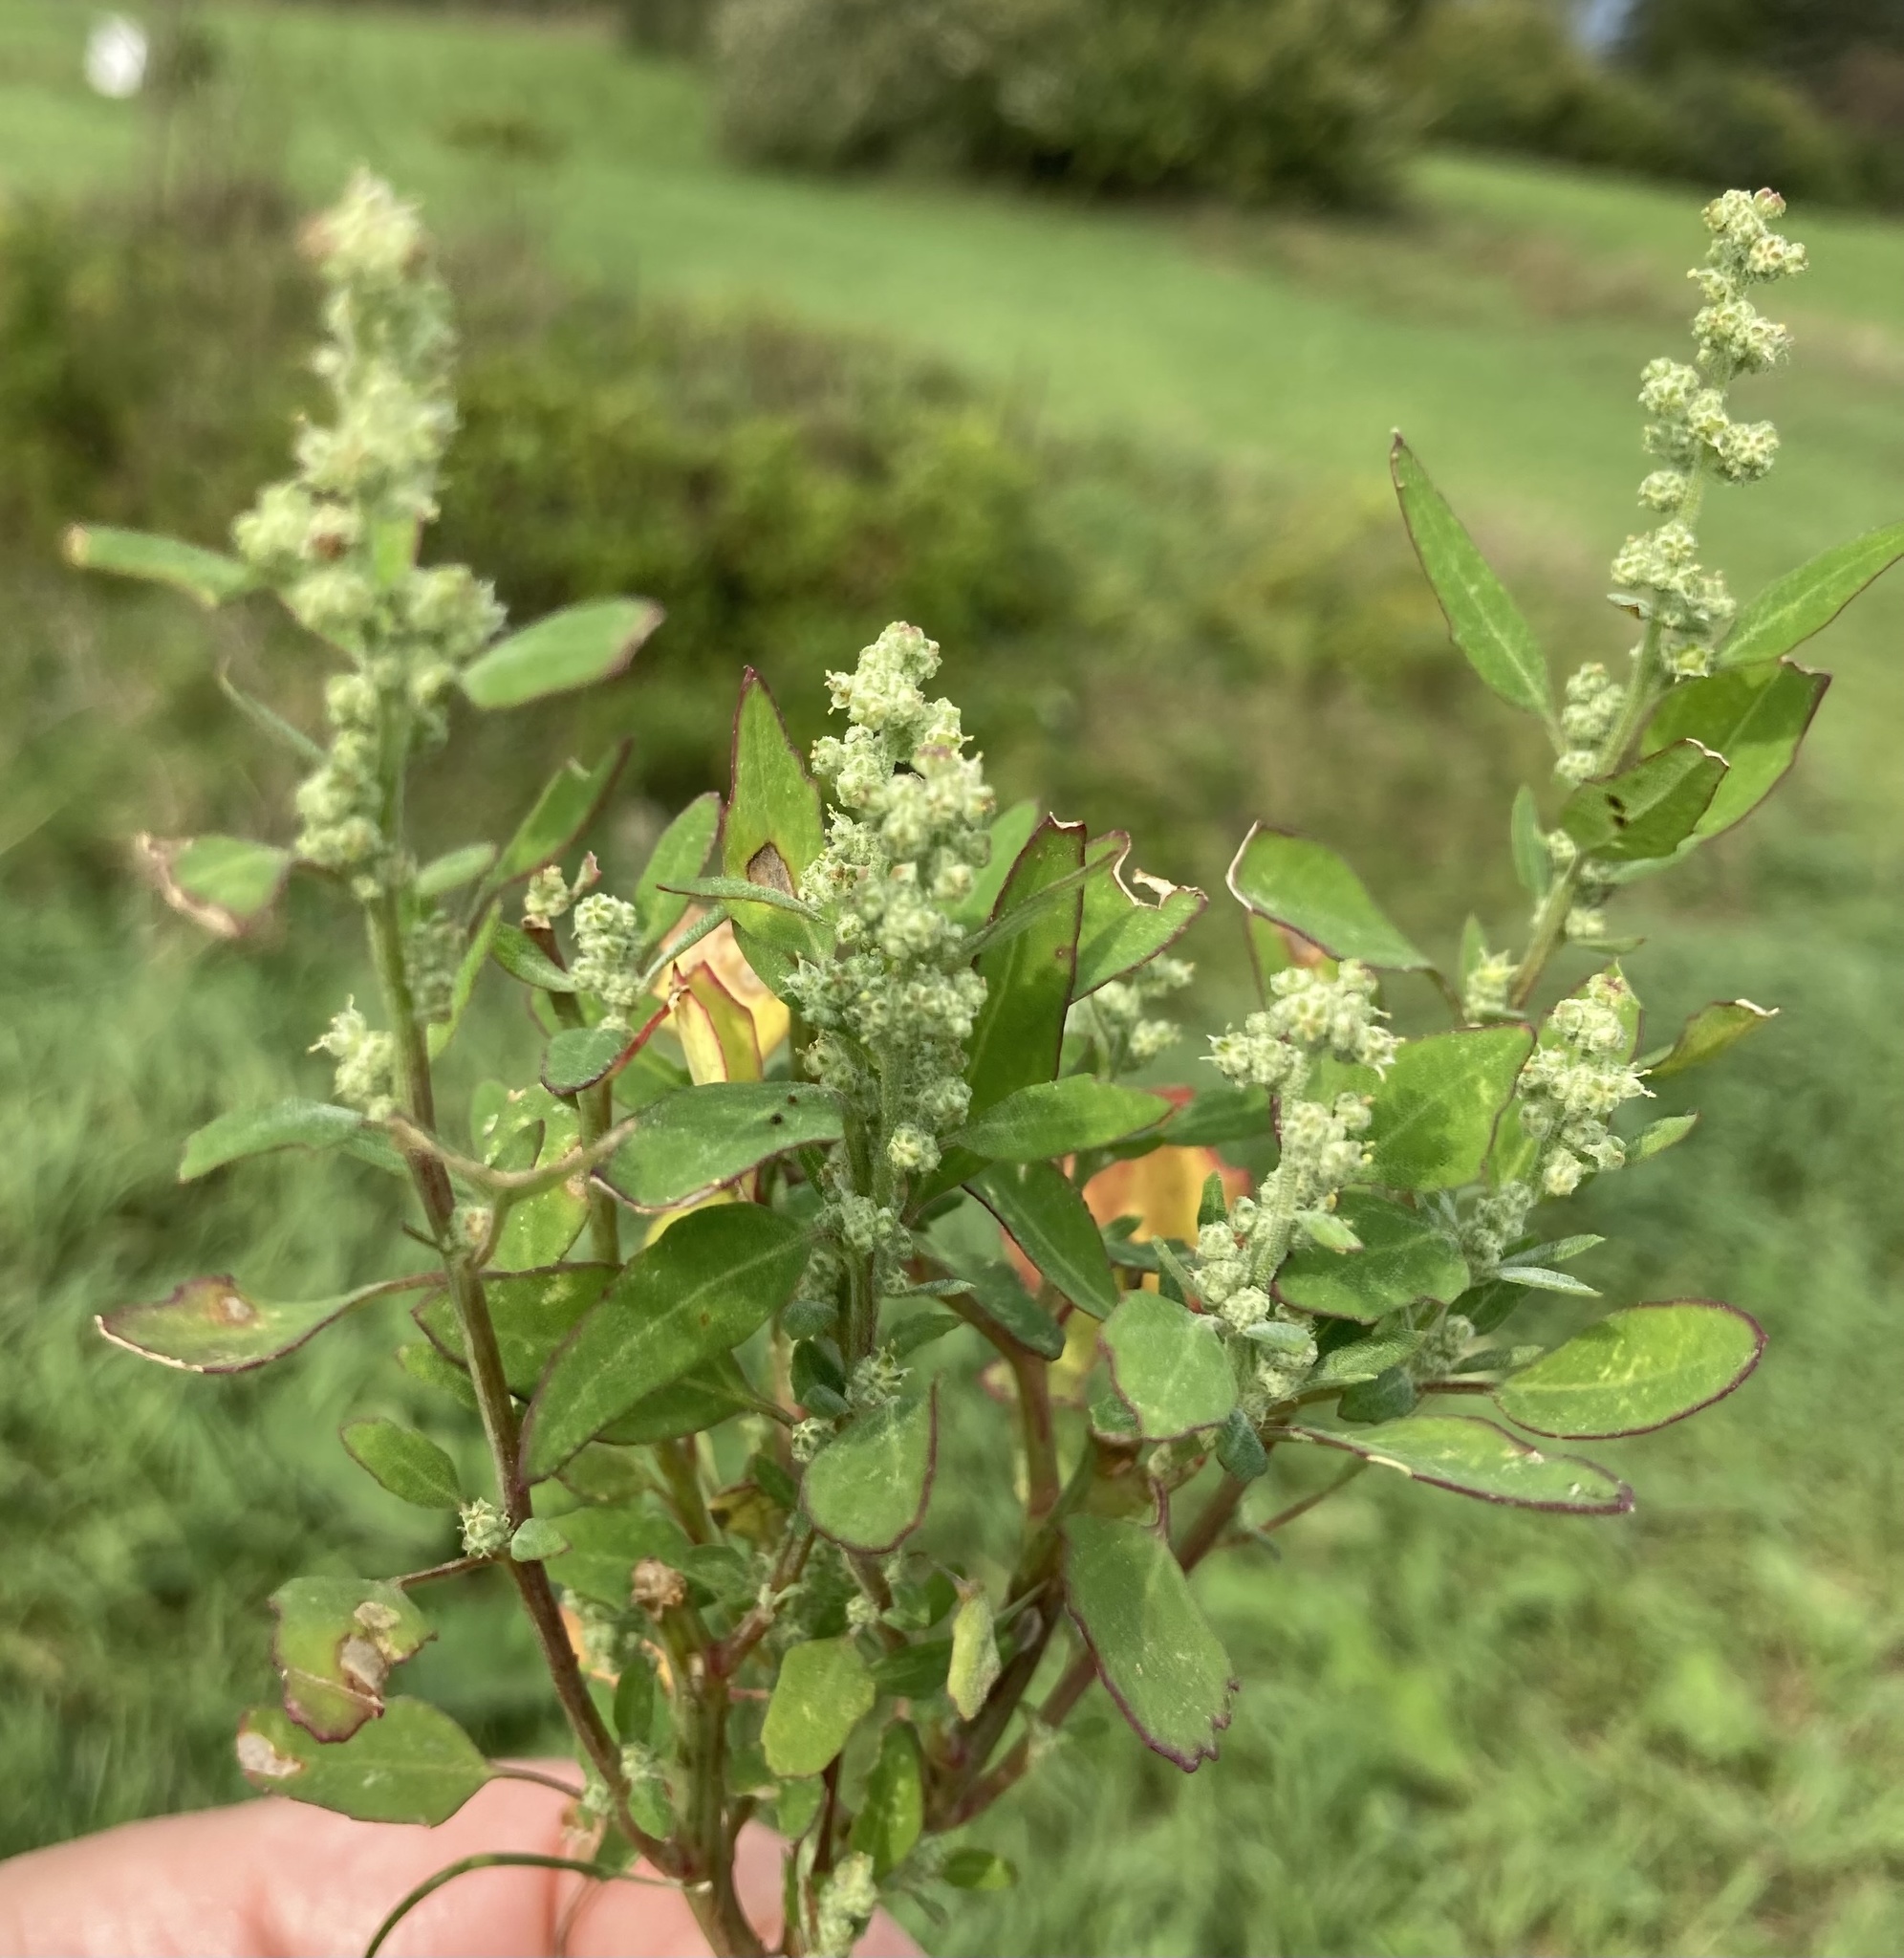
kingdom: Plantae
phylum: Tracheophyta
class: Magnoliopsida
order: Caryophyllales
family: Amaranthaceae
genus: Chenopodium
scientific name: Chenopodium album
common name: Fat-hen
